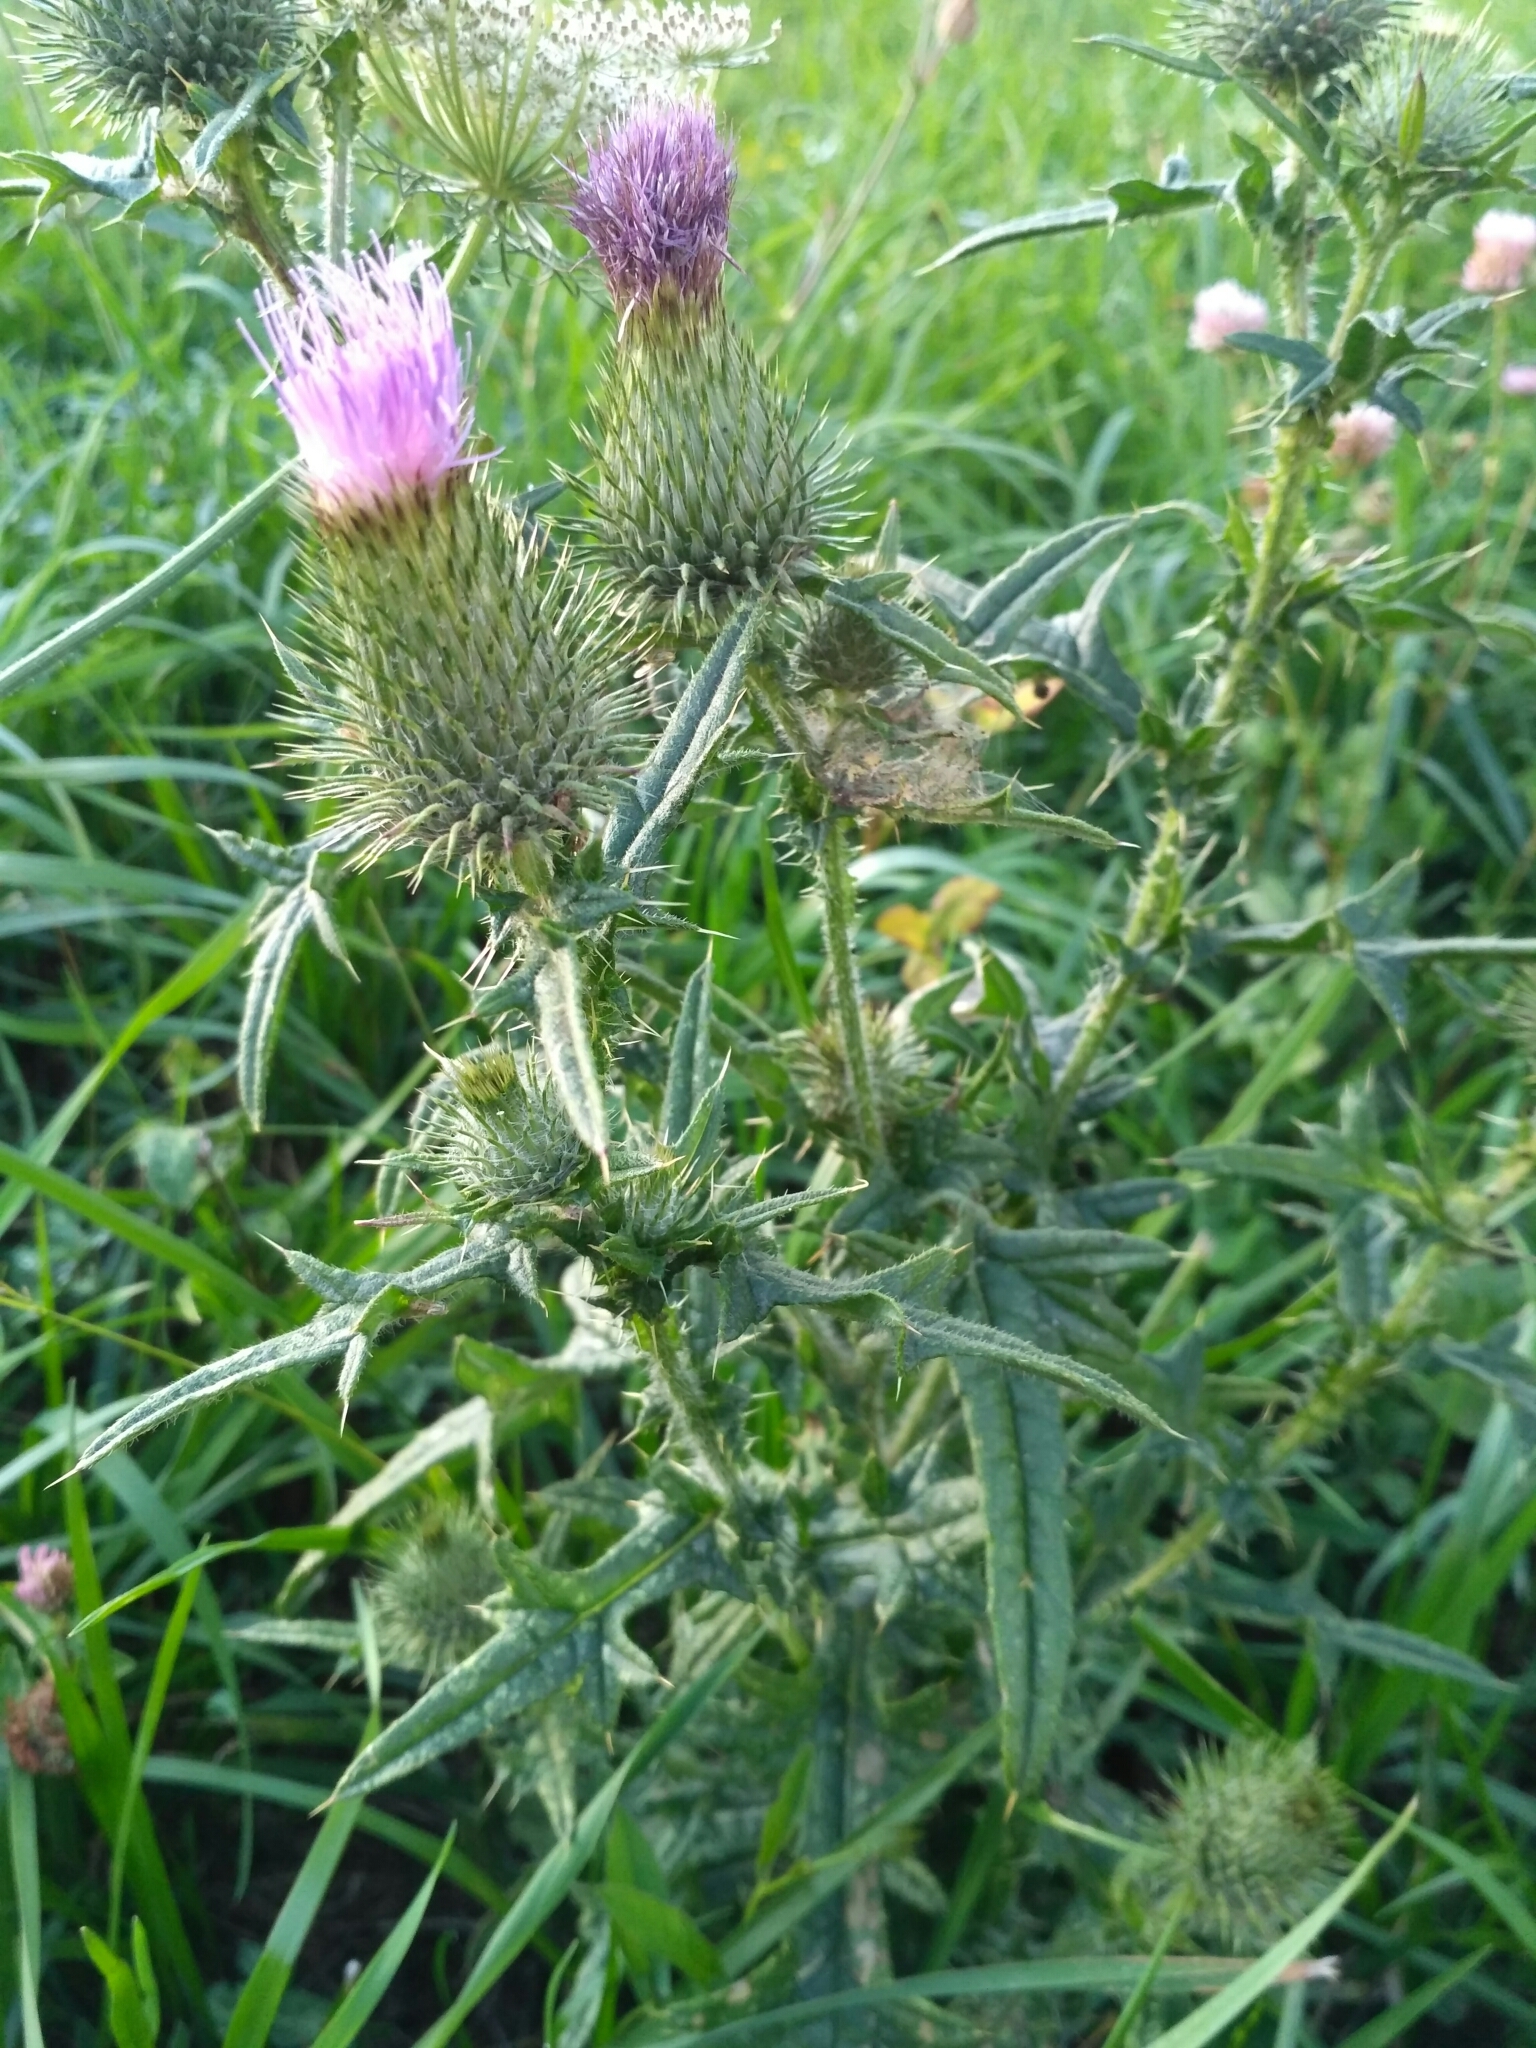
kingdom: Plantae
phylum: Tracheophyta
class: Magnoliopsida
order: Asterales
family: Asteraceae
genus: Cirsium
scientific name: Cirsium vulgare
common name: Bull thistle
